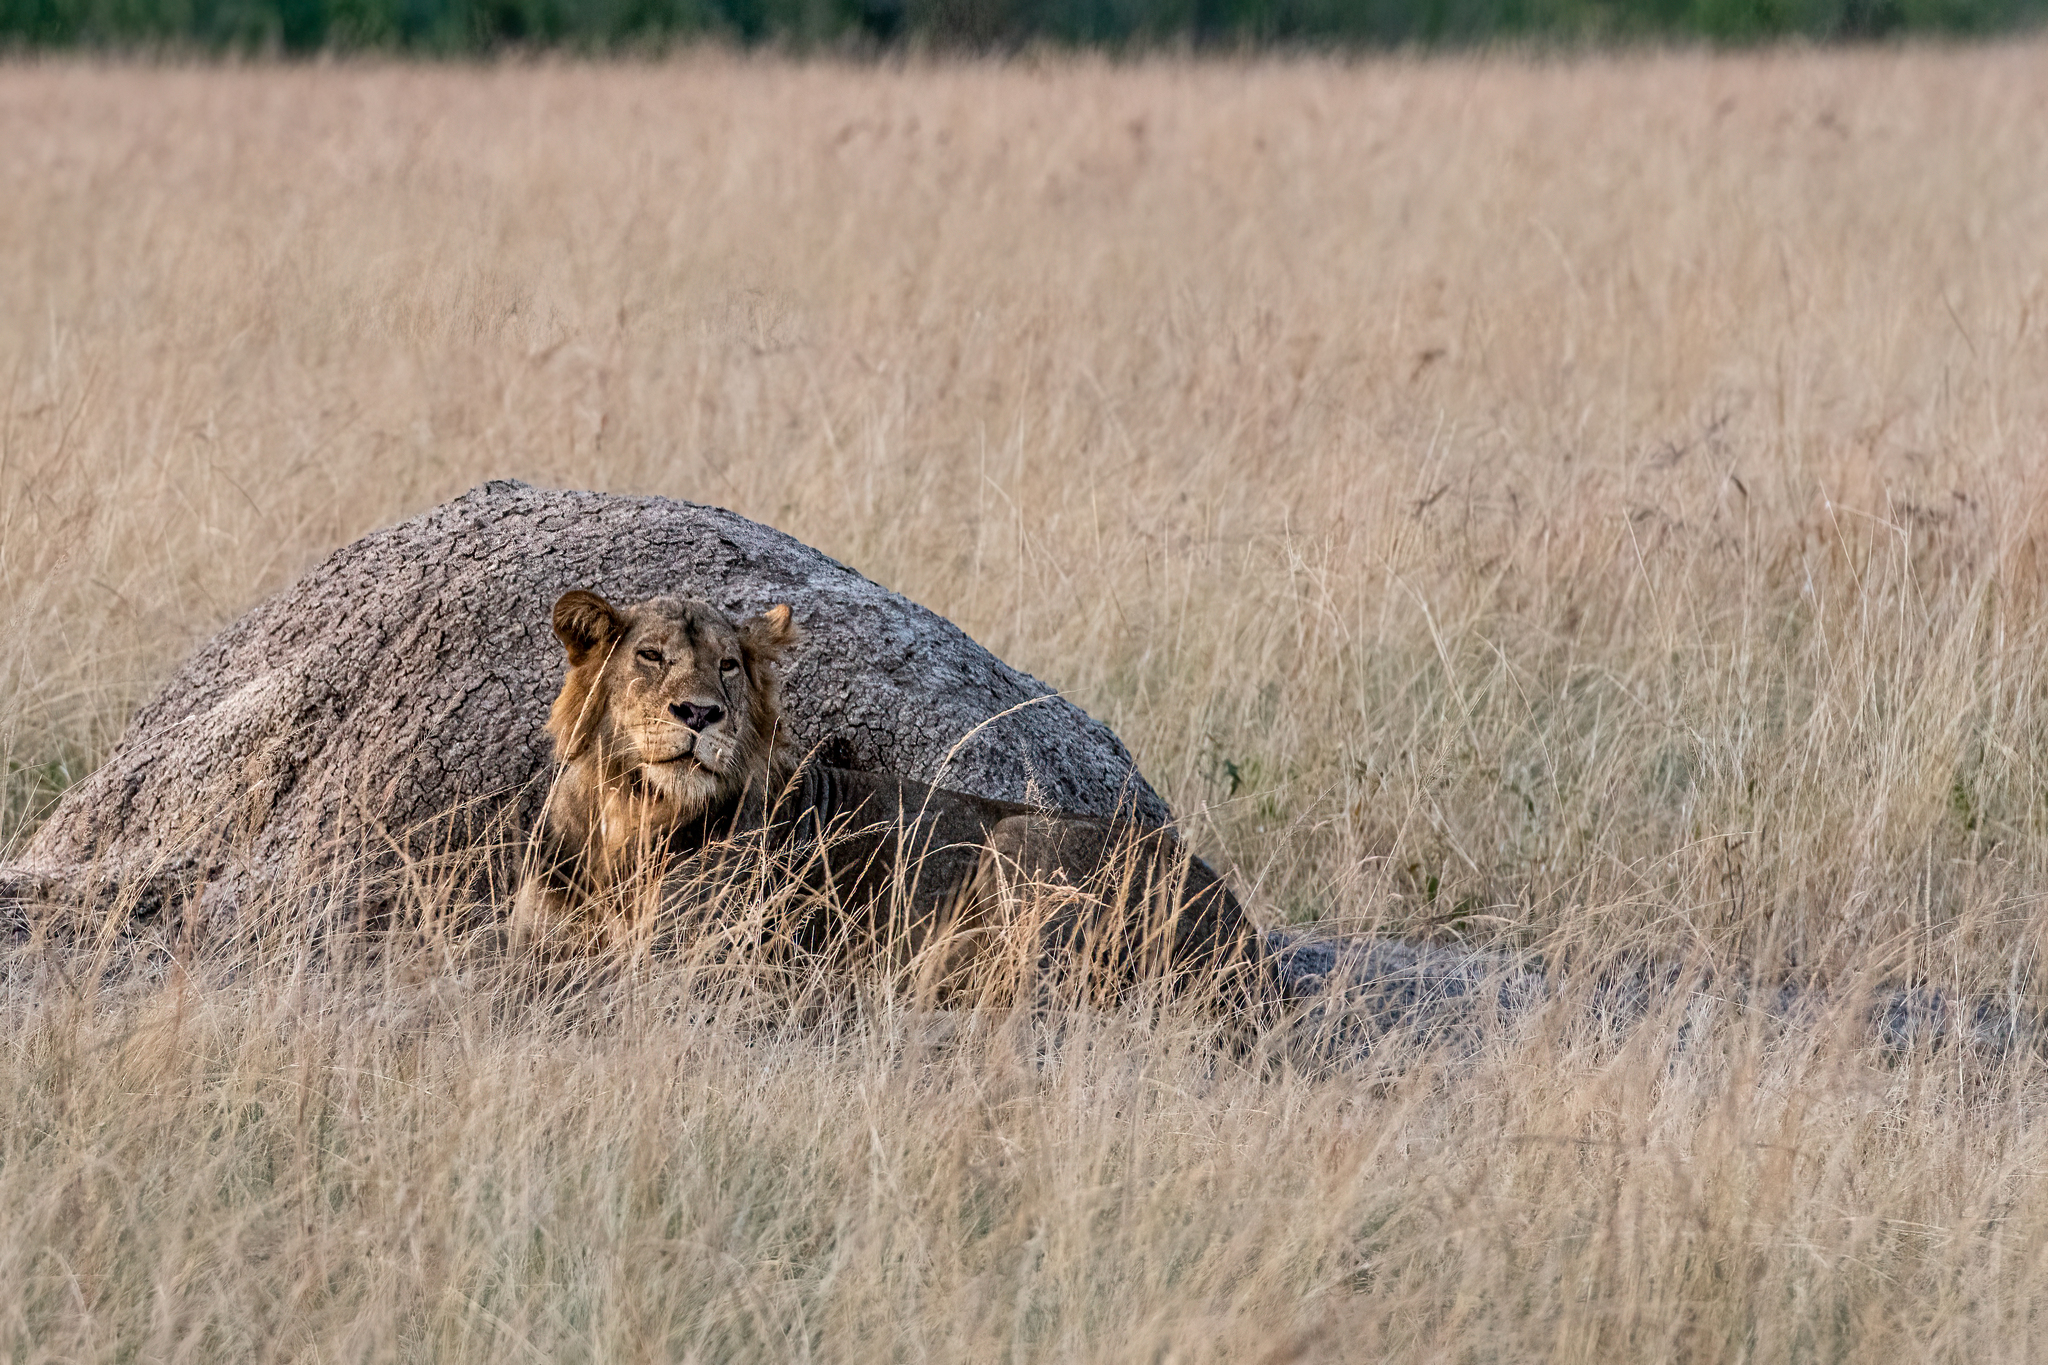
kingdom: Animalia
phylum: Chordata
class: Mammalia
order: Carnivora
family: Felidae
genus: Panthera
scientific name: Panthera leo
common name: Lion
